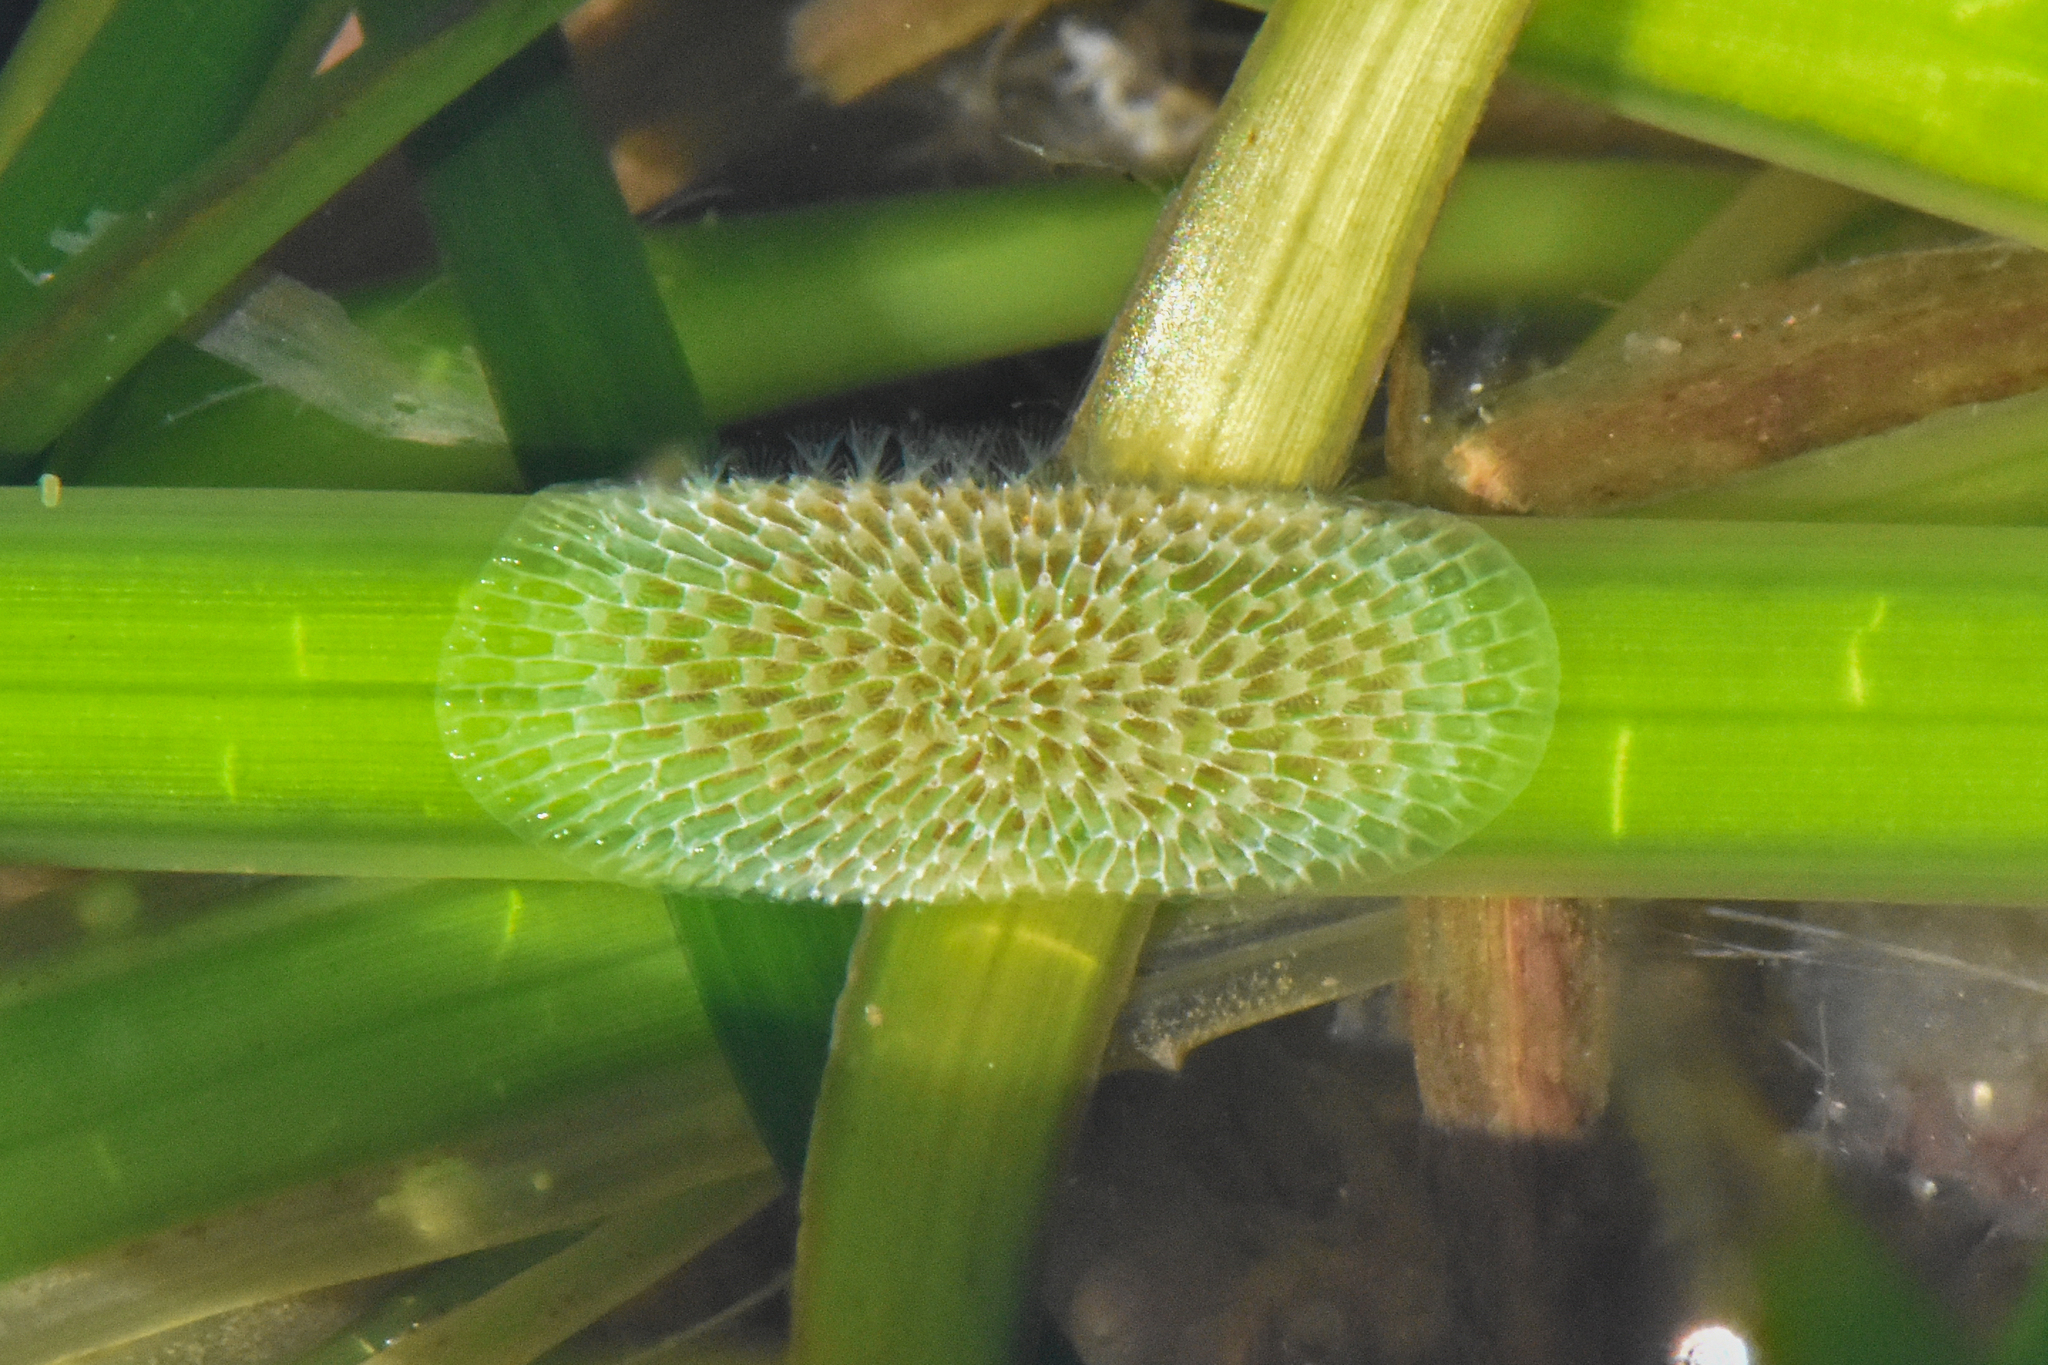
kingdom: Animalia
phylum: Bryozoa
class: Gymnolaemata
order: Cheilostomatida
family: Membraniporidae
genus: Membranipora
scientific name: Membranipora membranacea
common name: Sea mat
